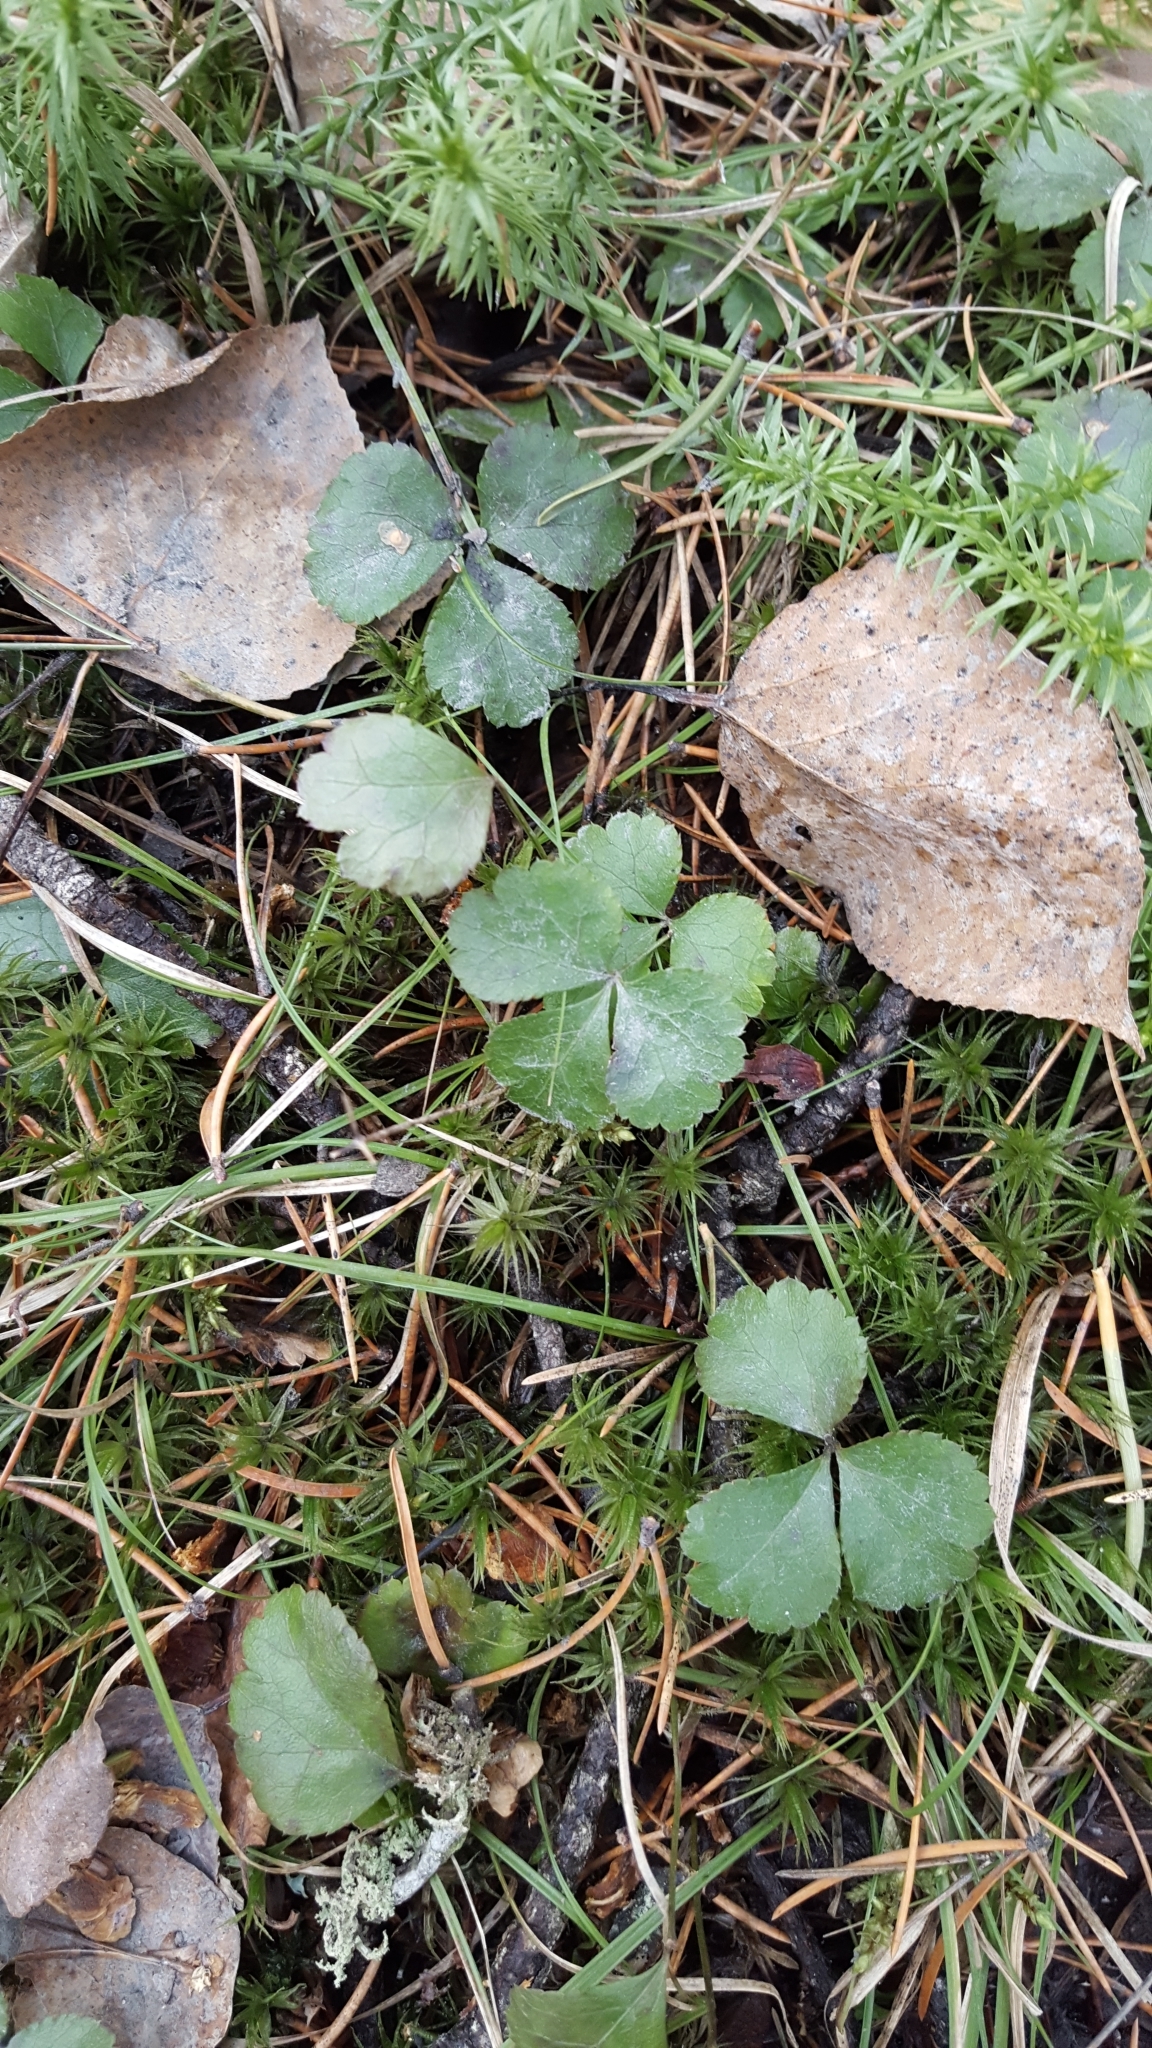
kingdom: Plantae
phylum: Tracheophyta
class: Magnoliopsida
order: Ranunculales
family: Ranunculaceae
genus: Coptis
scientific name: Coptis trifolia
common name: Canker-root
